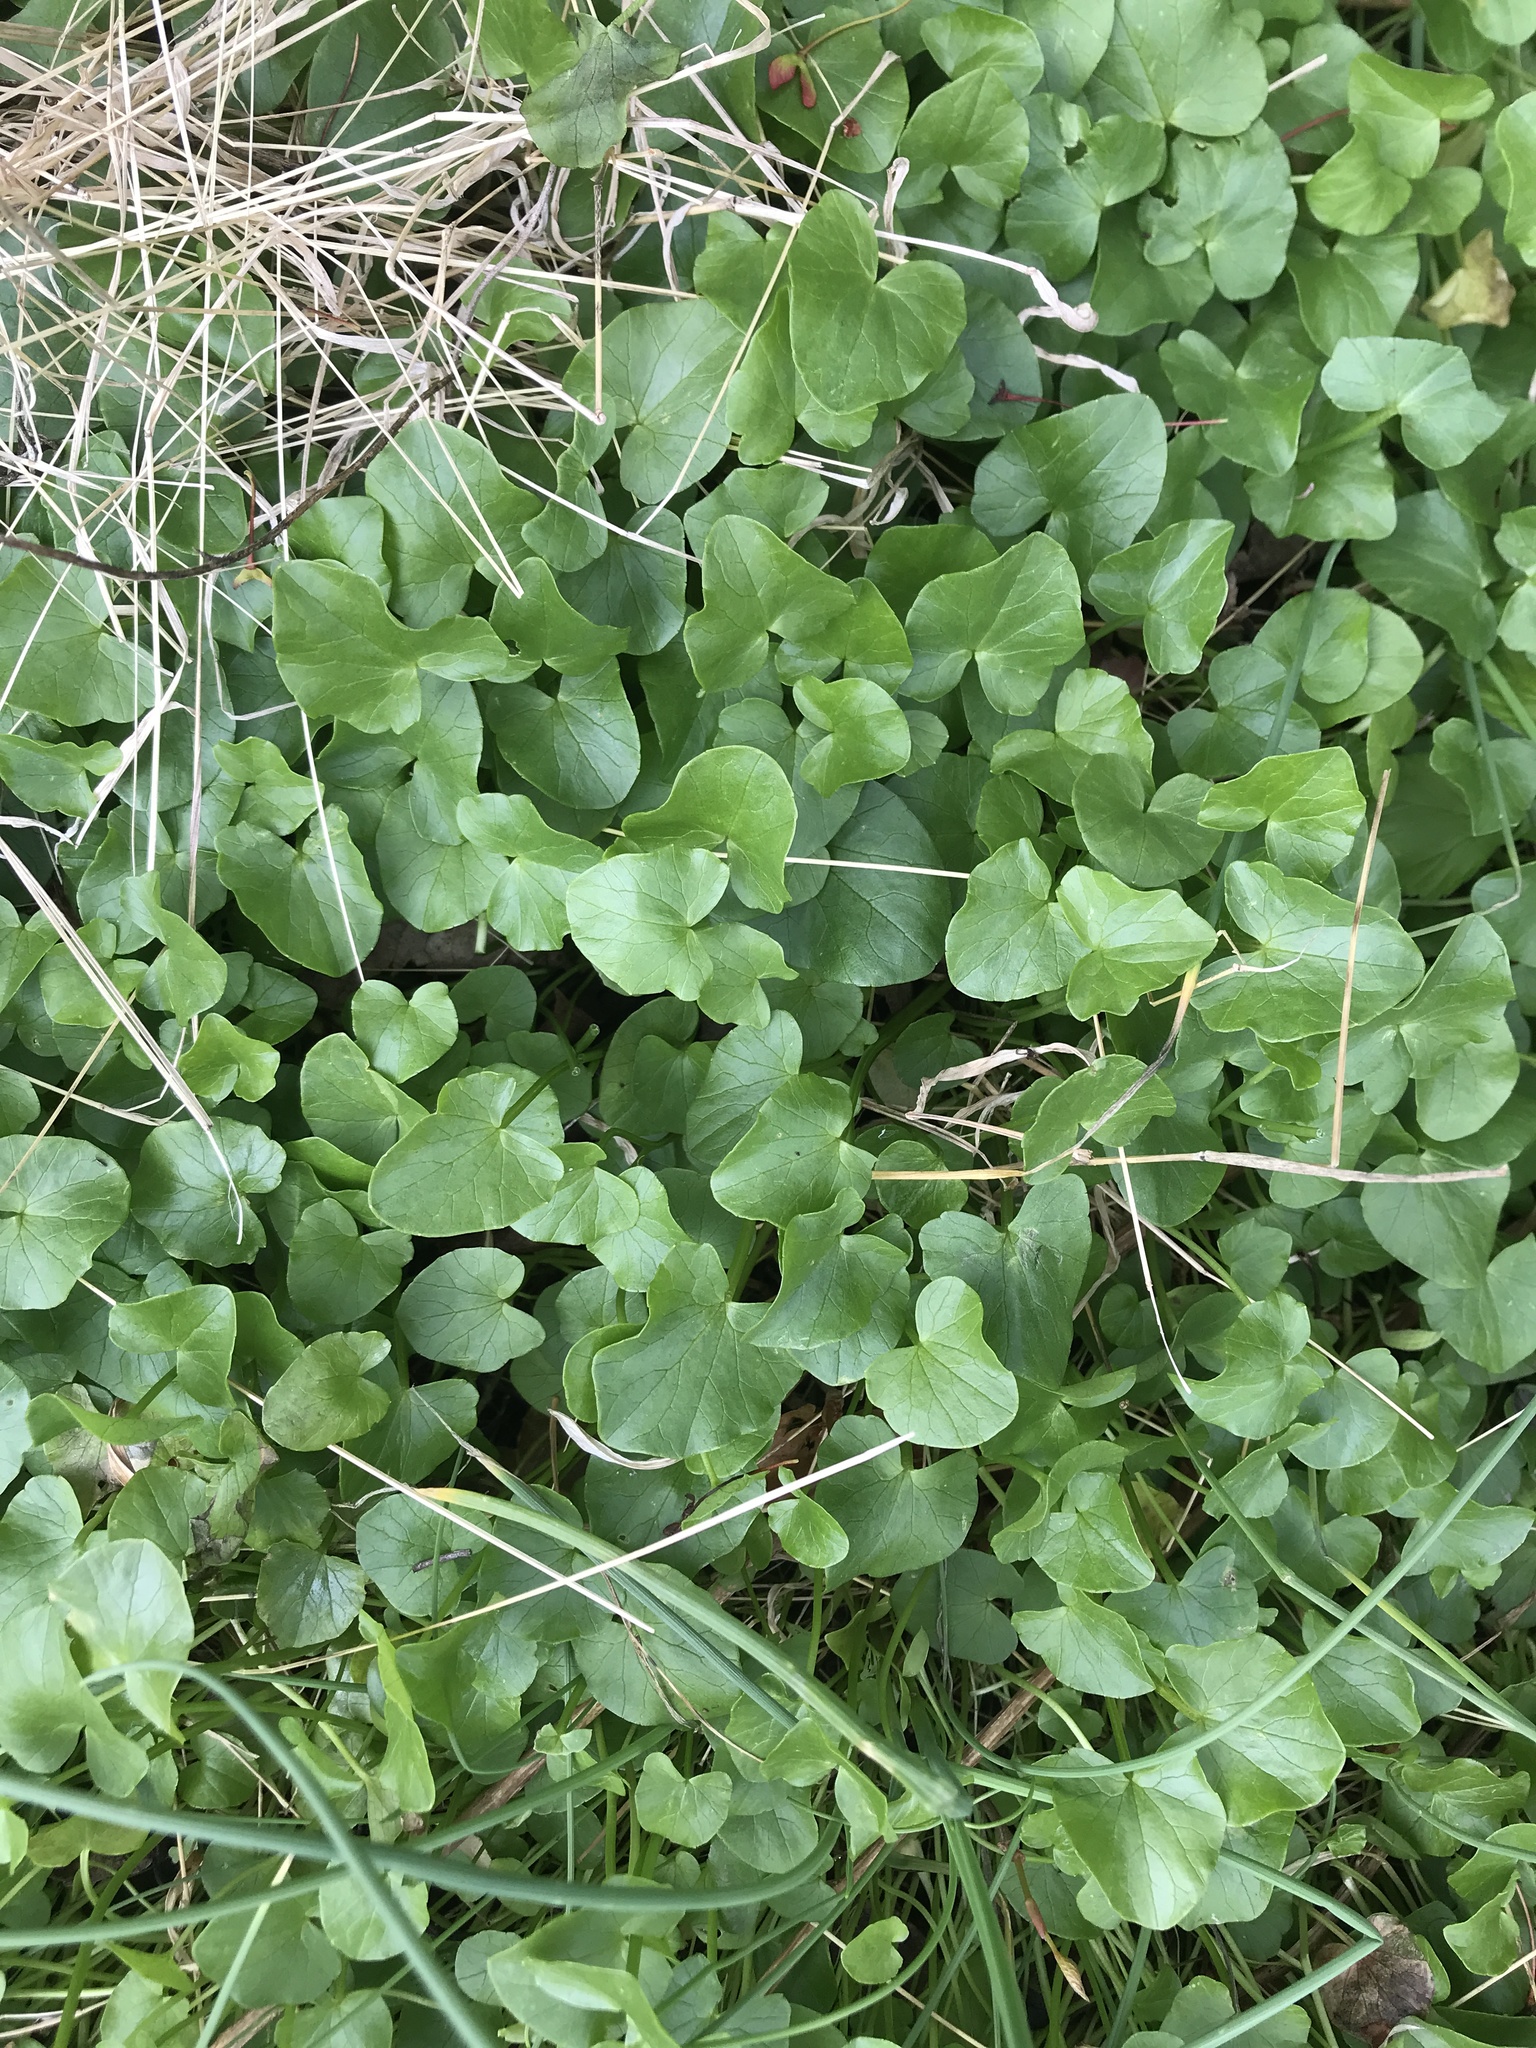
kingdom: Plantae
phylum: Tracheophyta
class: Magnoliopsida
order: Ranunculales
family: Ranunculaceae
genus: Ficaria
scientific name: Ficaria verna
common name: Lesser celandine
